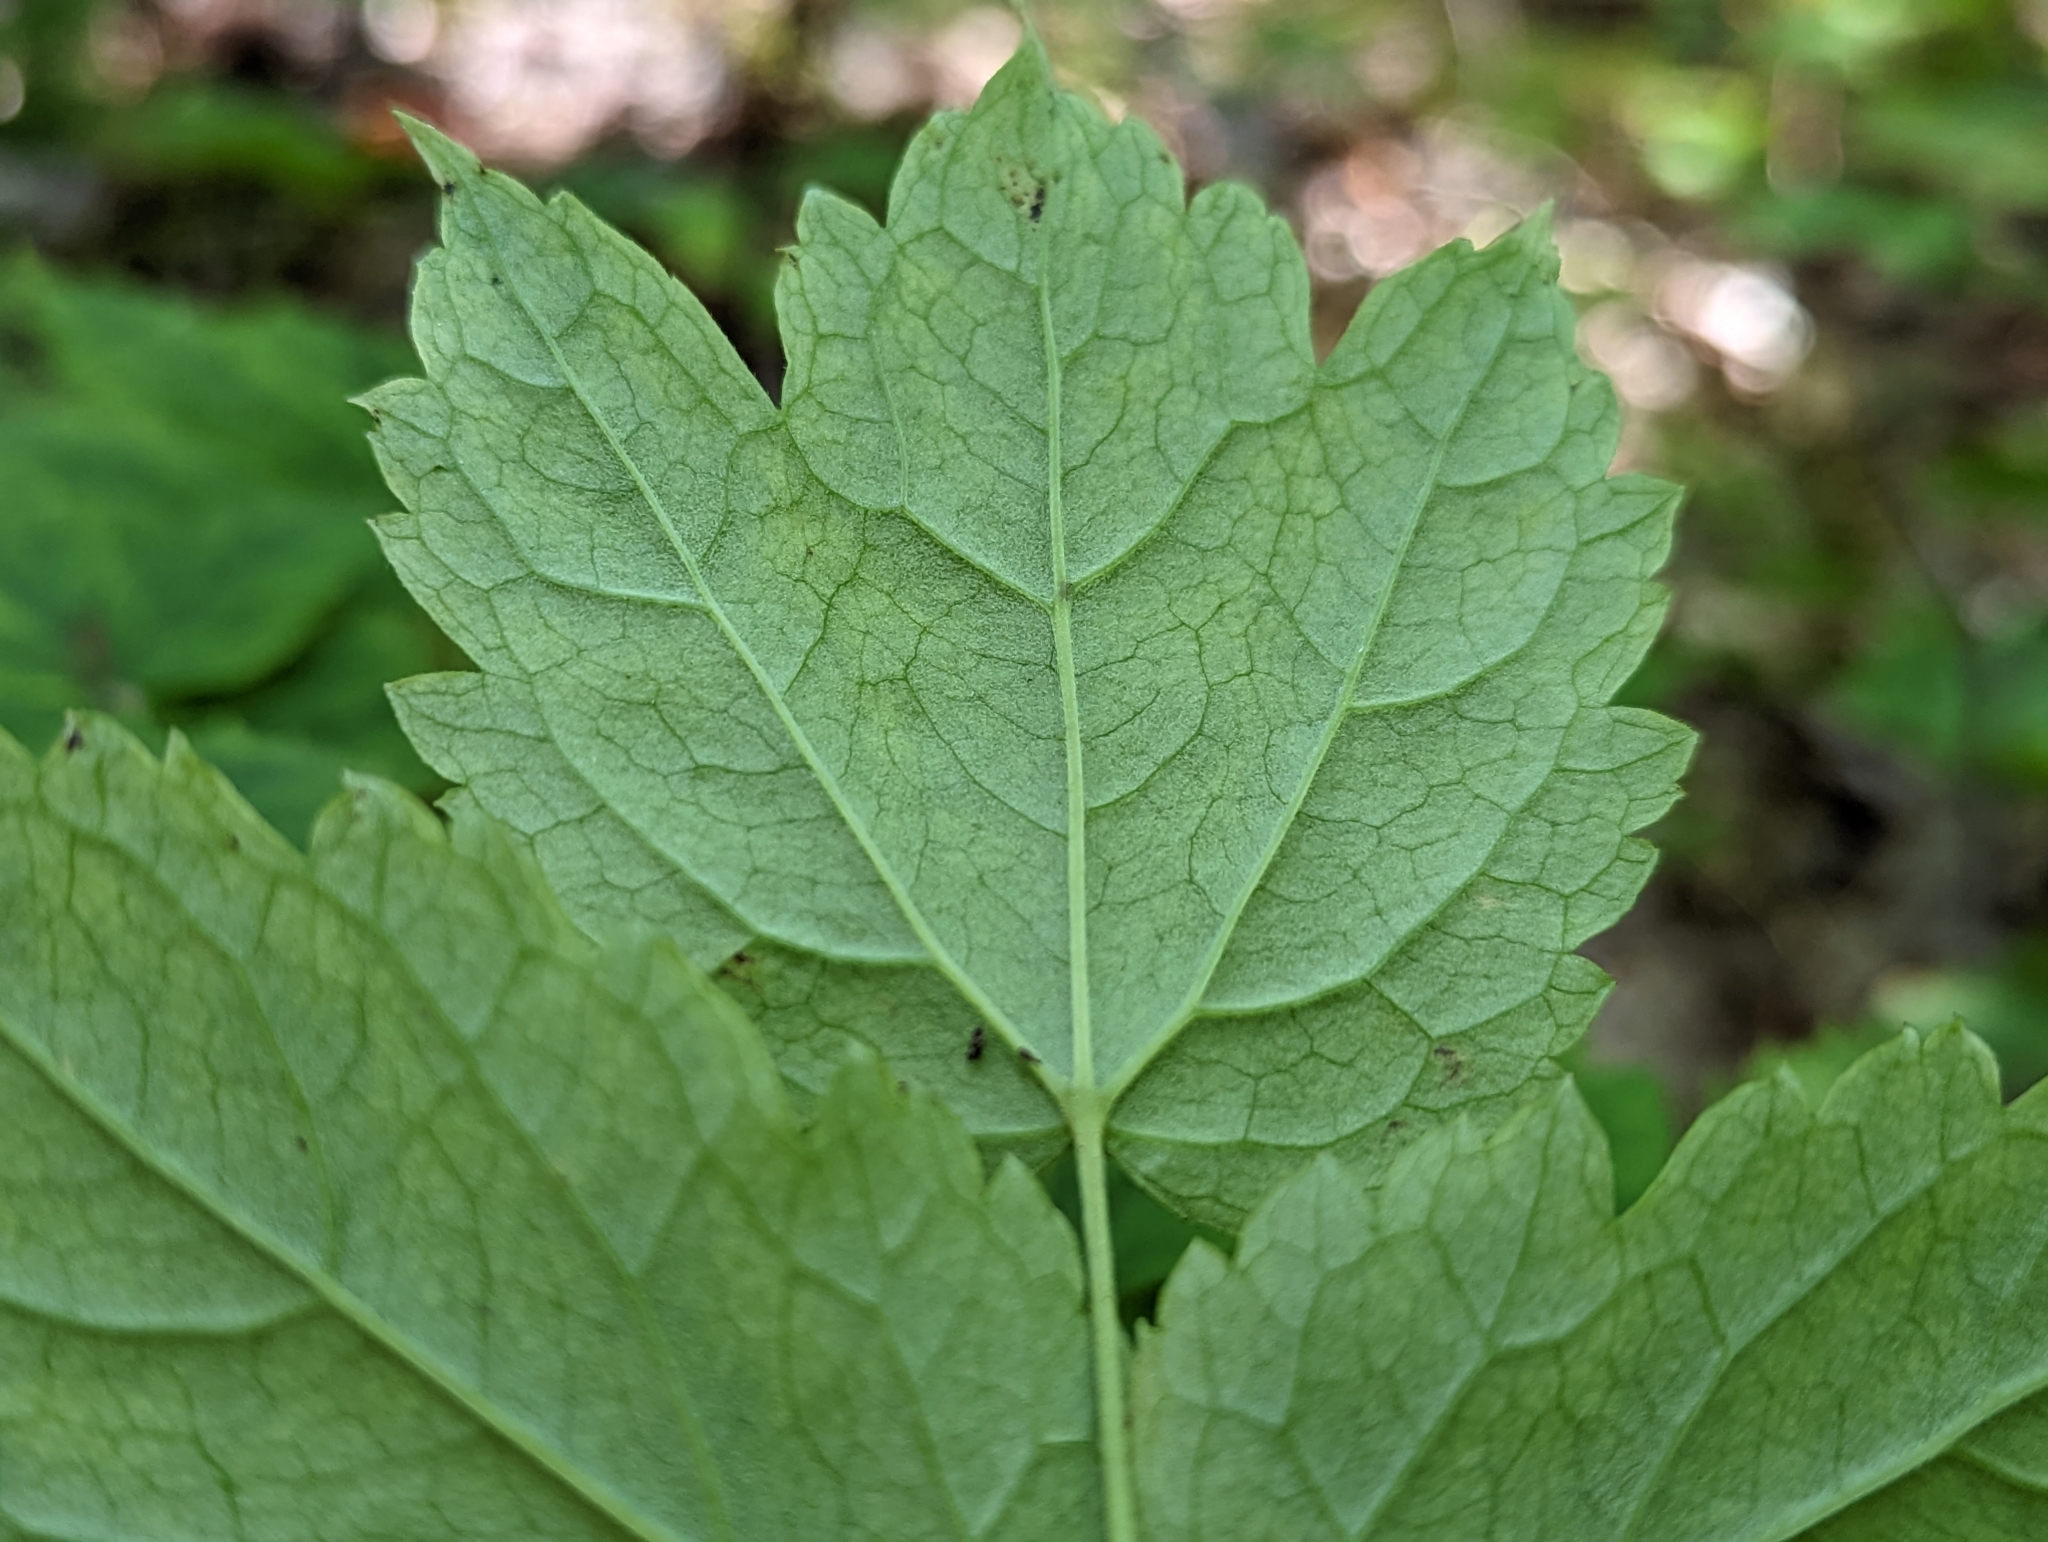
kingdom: Plantae
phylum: Tracheophyta
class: Magnoliopsida
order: Ranunculales
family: Ranunculaceae
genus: Actaea
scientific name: Actaea pachypoda
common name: Doll's-eyes
